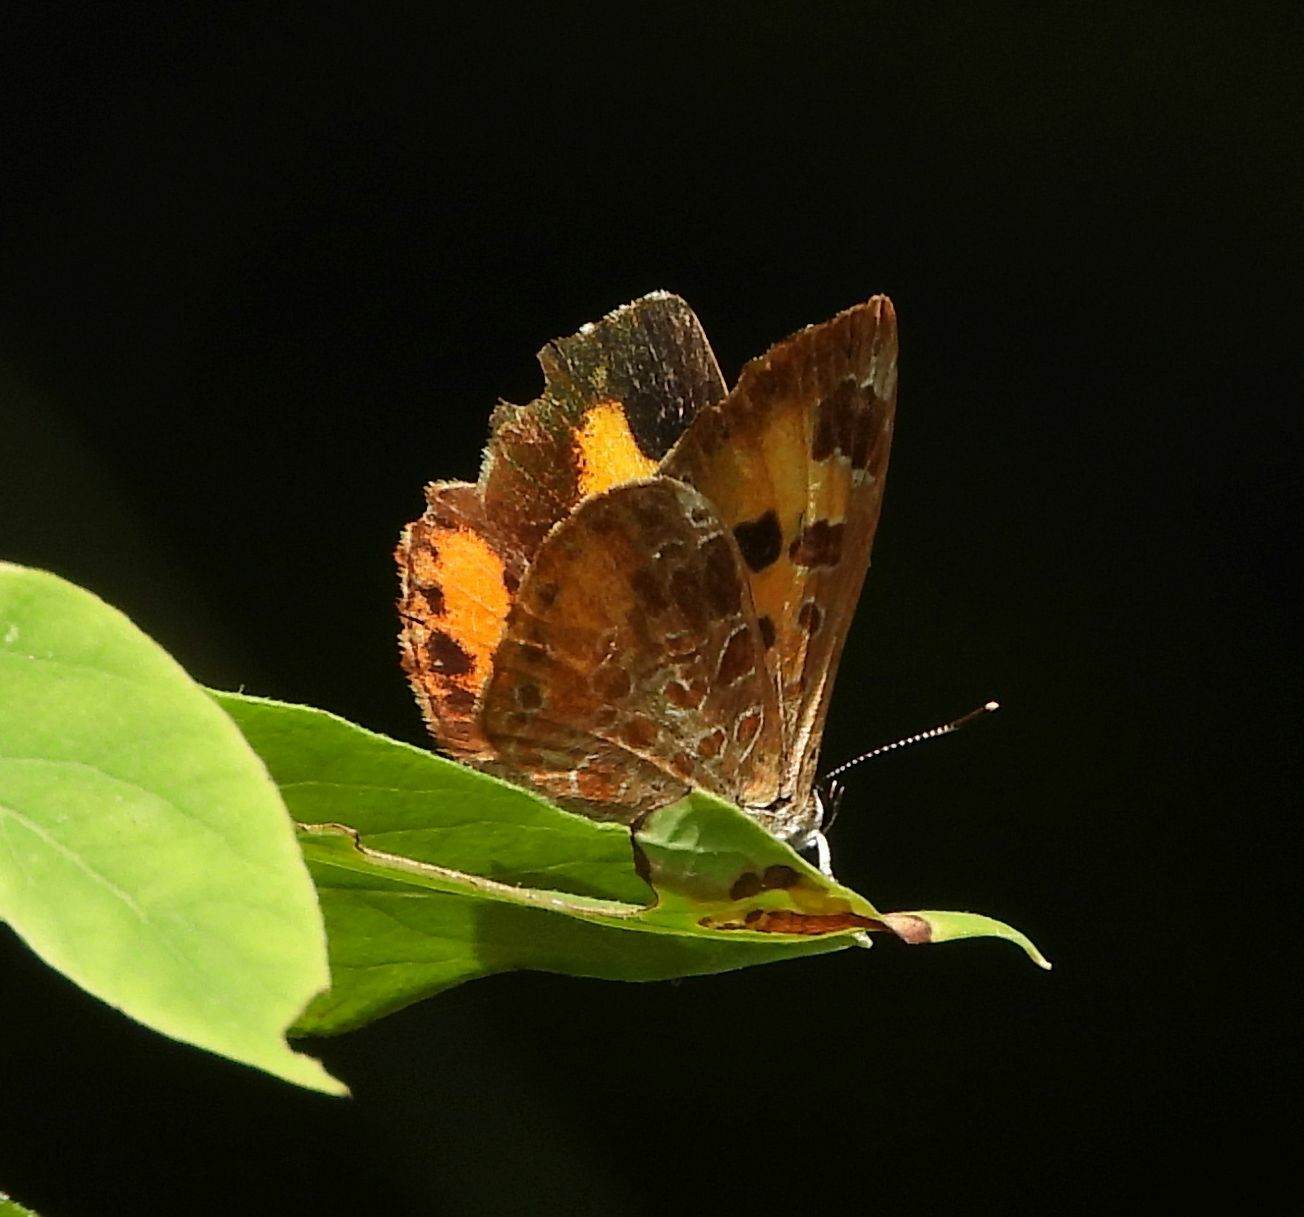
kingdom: Animalia
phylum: Arthropoda
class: Insecta
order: Lepidoptera
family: Lycaenidae
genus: Feniseca
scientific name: Feniseca tarquinius
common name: Harvester
